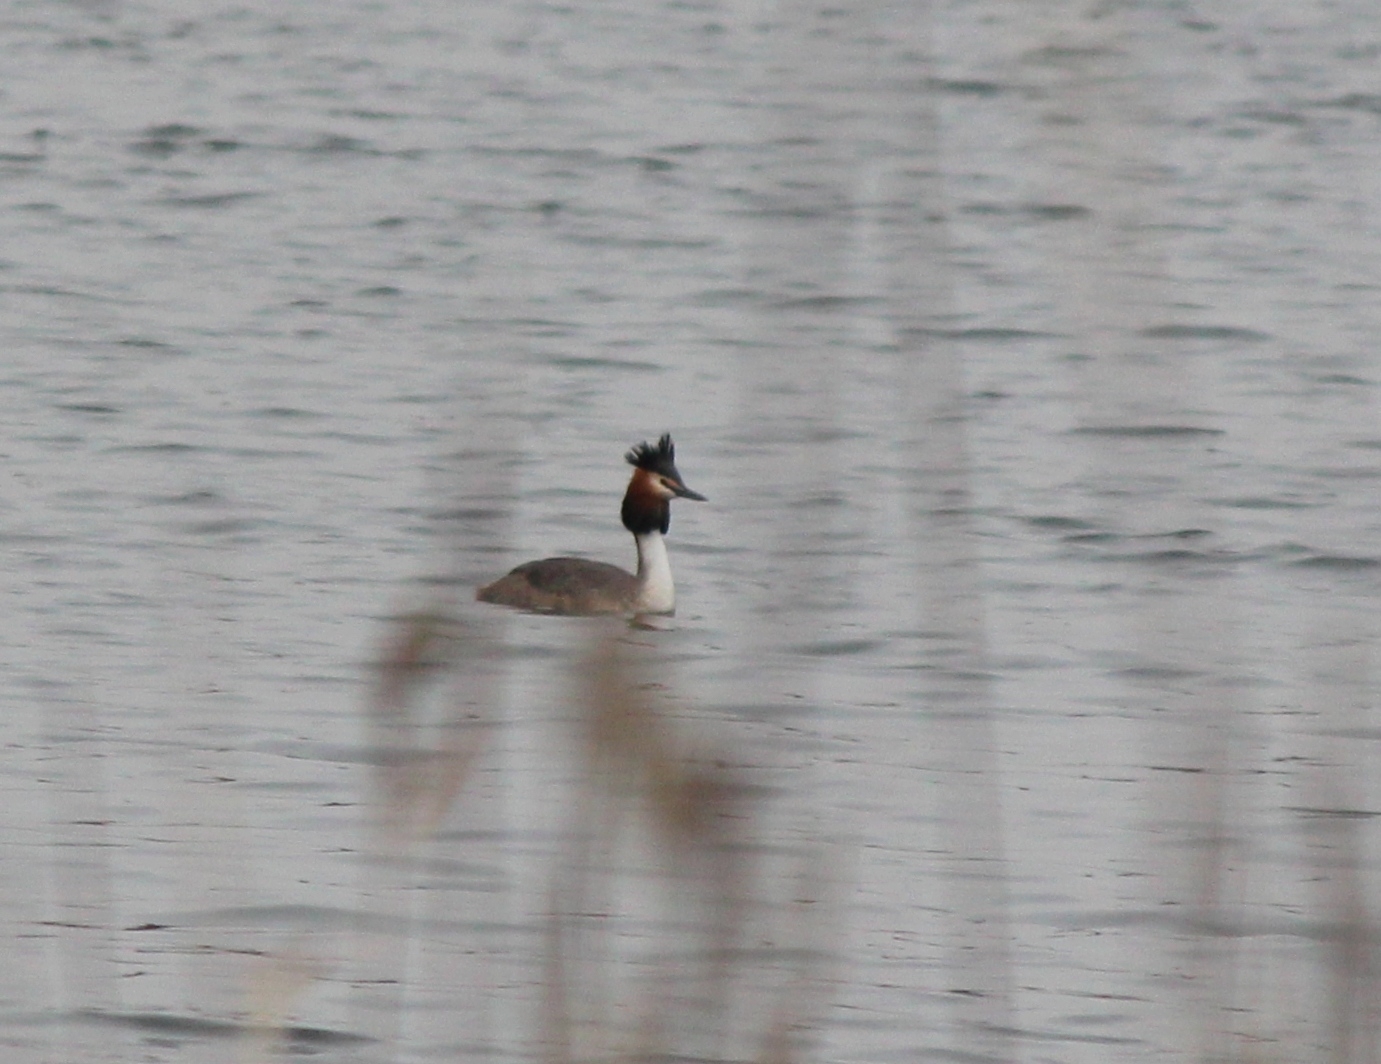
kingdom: Animalia
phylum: Chordata
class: Aves
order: Podicipediformes
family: Podicipedidae
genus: Podiceps
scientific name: Podiceps cristatus
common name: Great crested grebe
